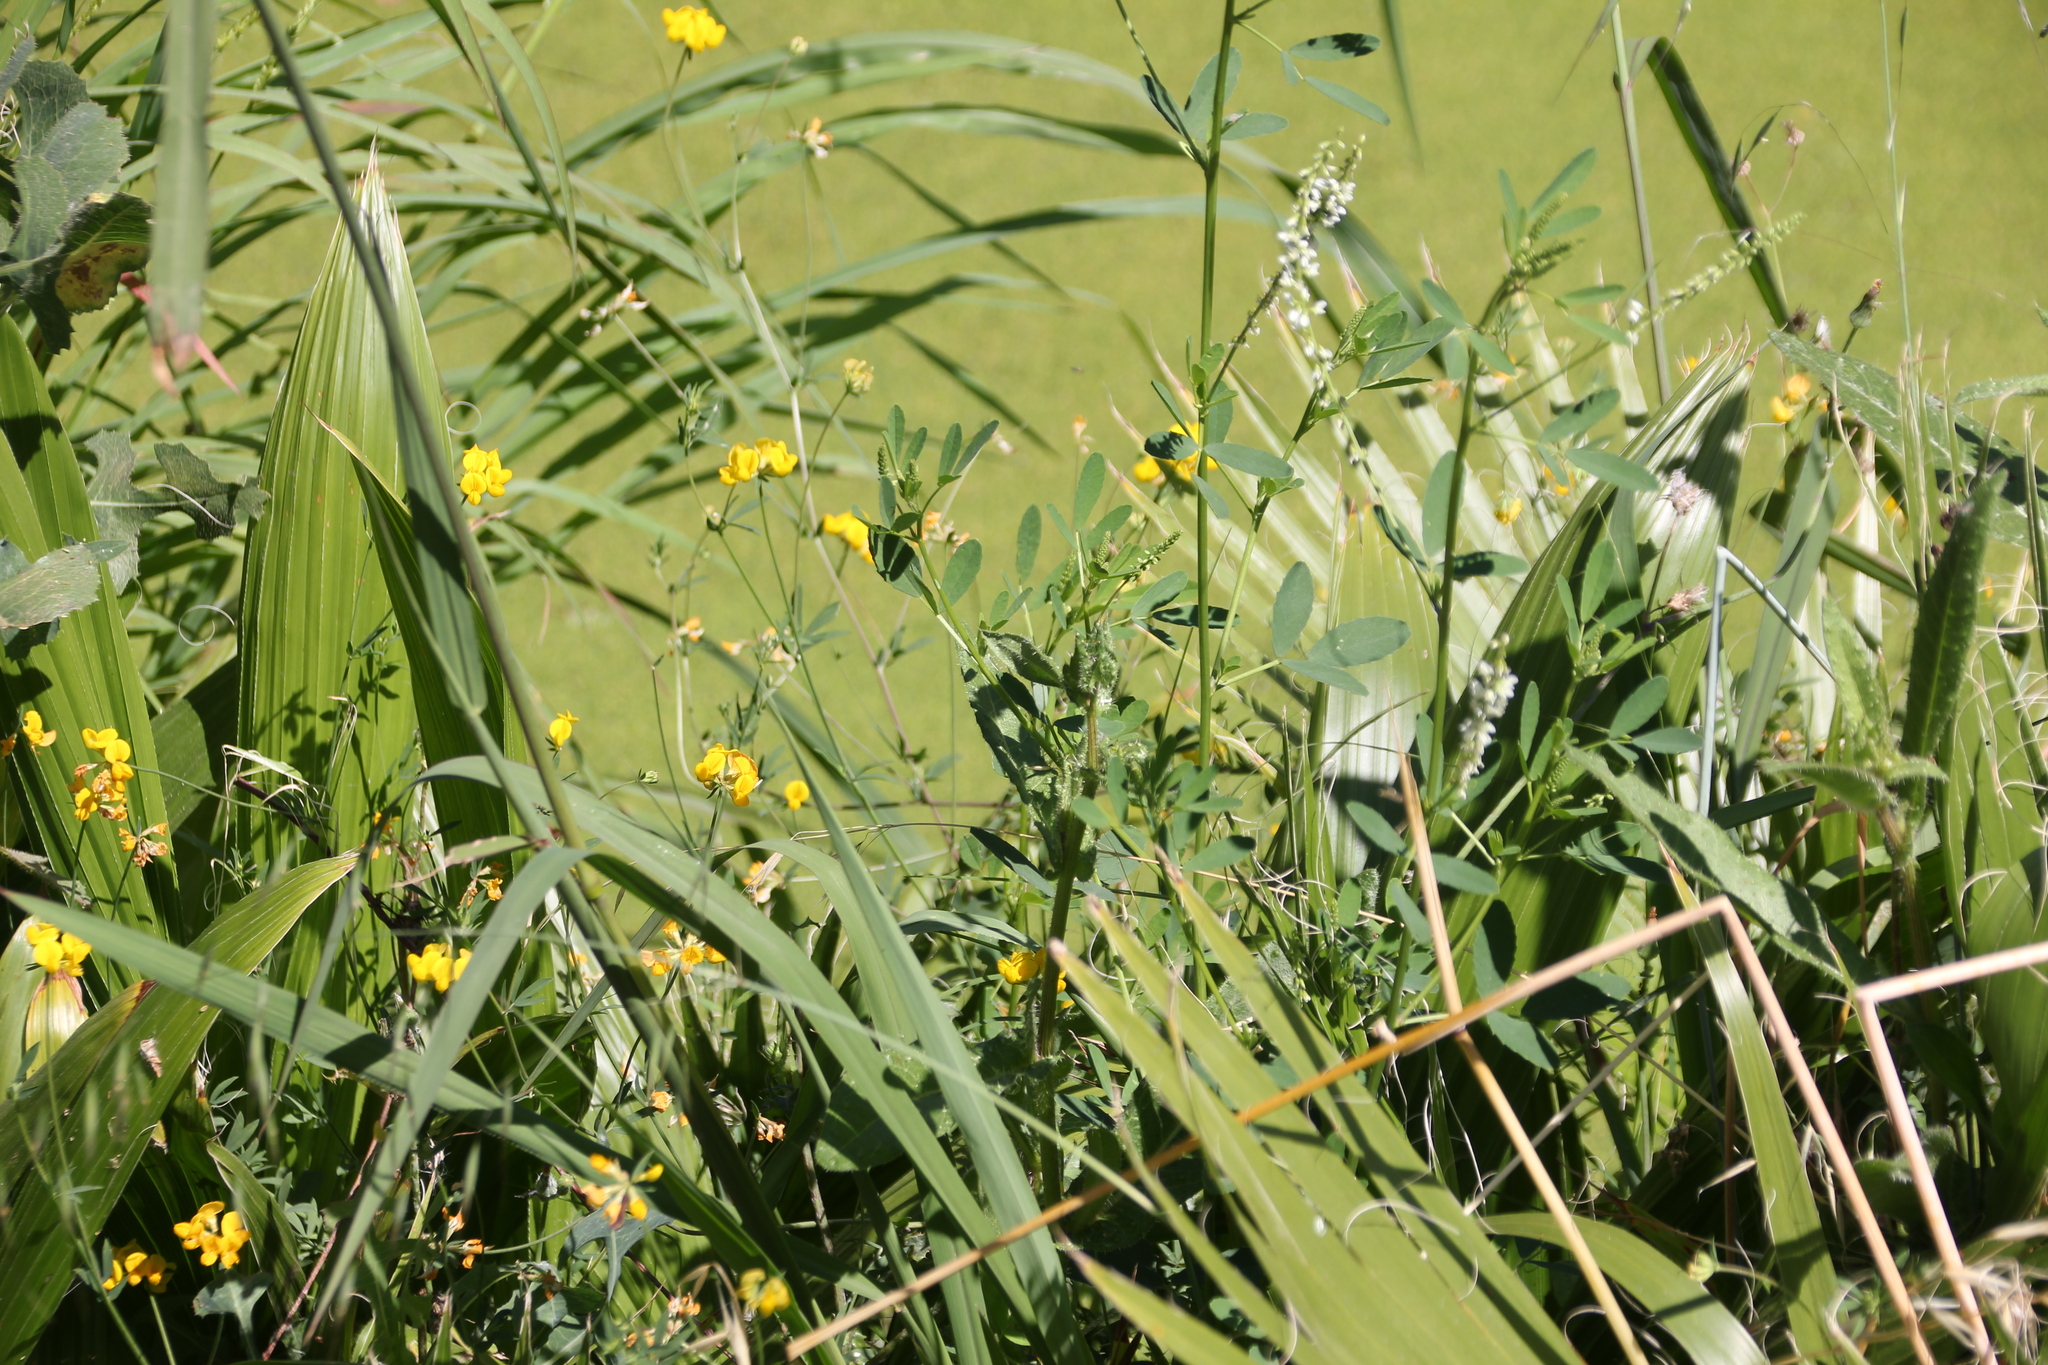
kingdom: Plantae
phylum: Tracheophyta
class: Magnoliopsida
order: Fabales
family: Fabaceae
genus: Lotus
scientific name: Lotus corniculatus
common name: Common bird's-foot-trefoil
